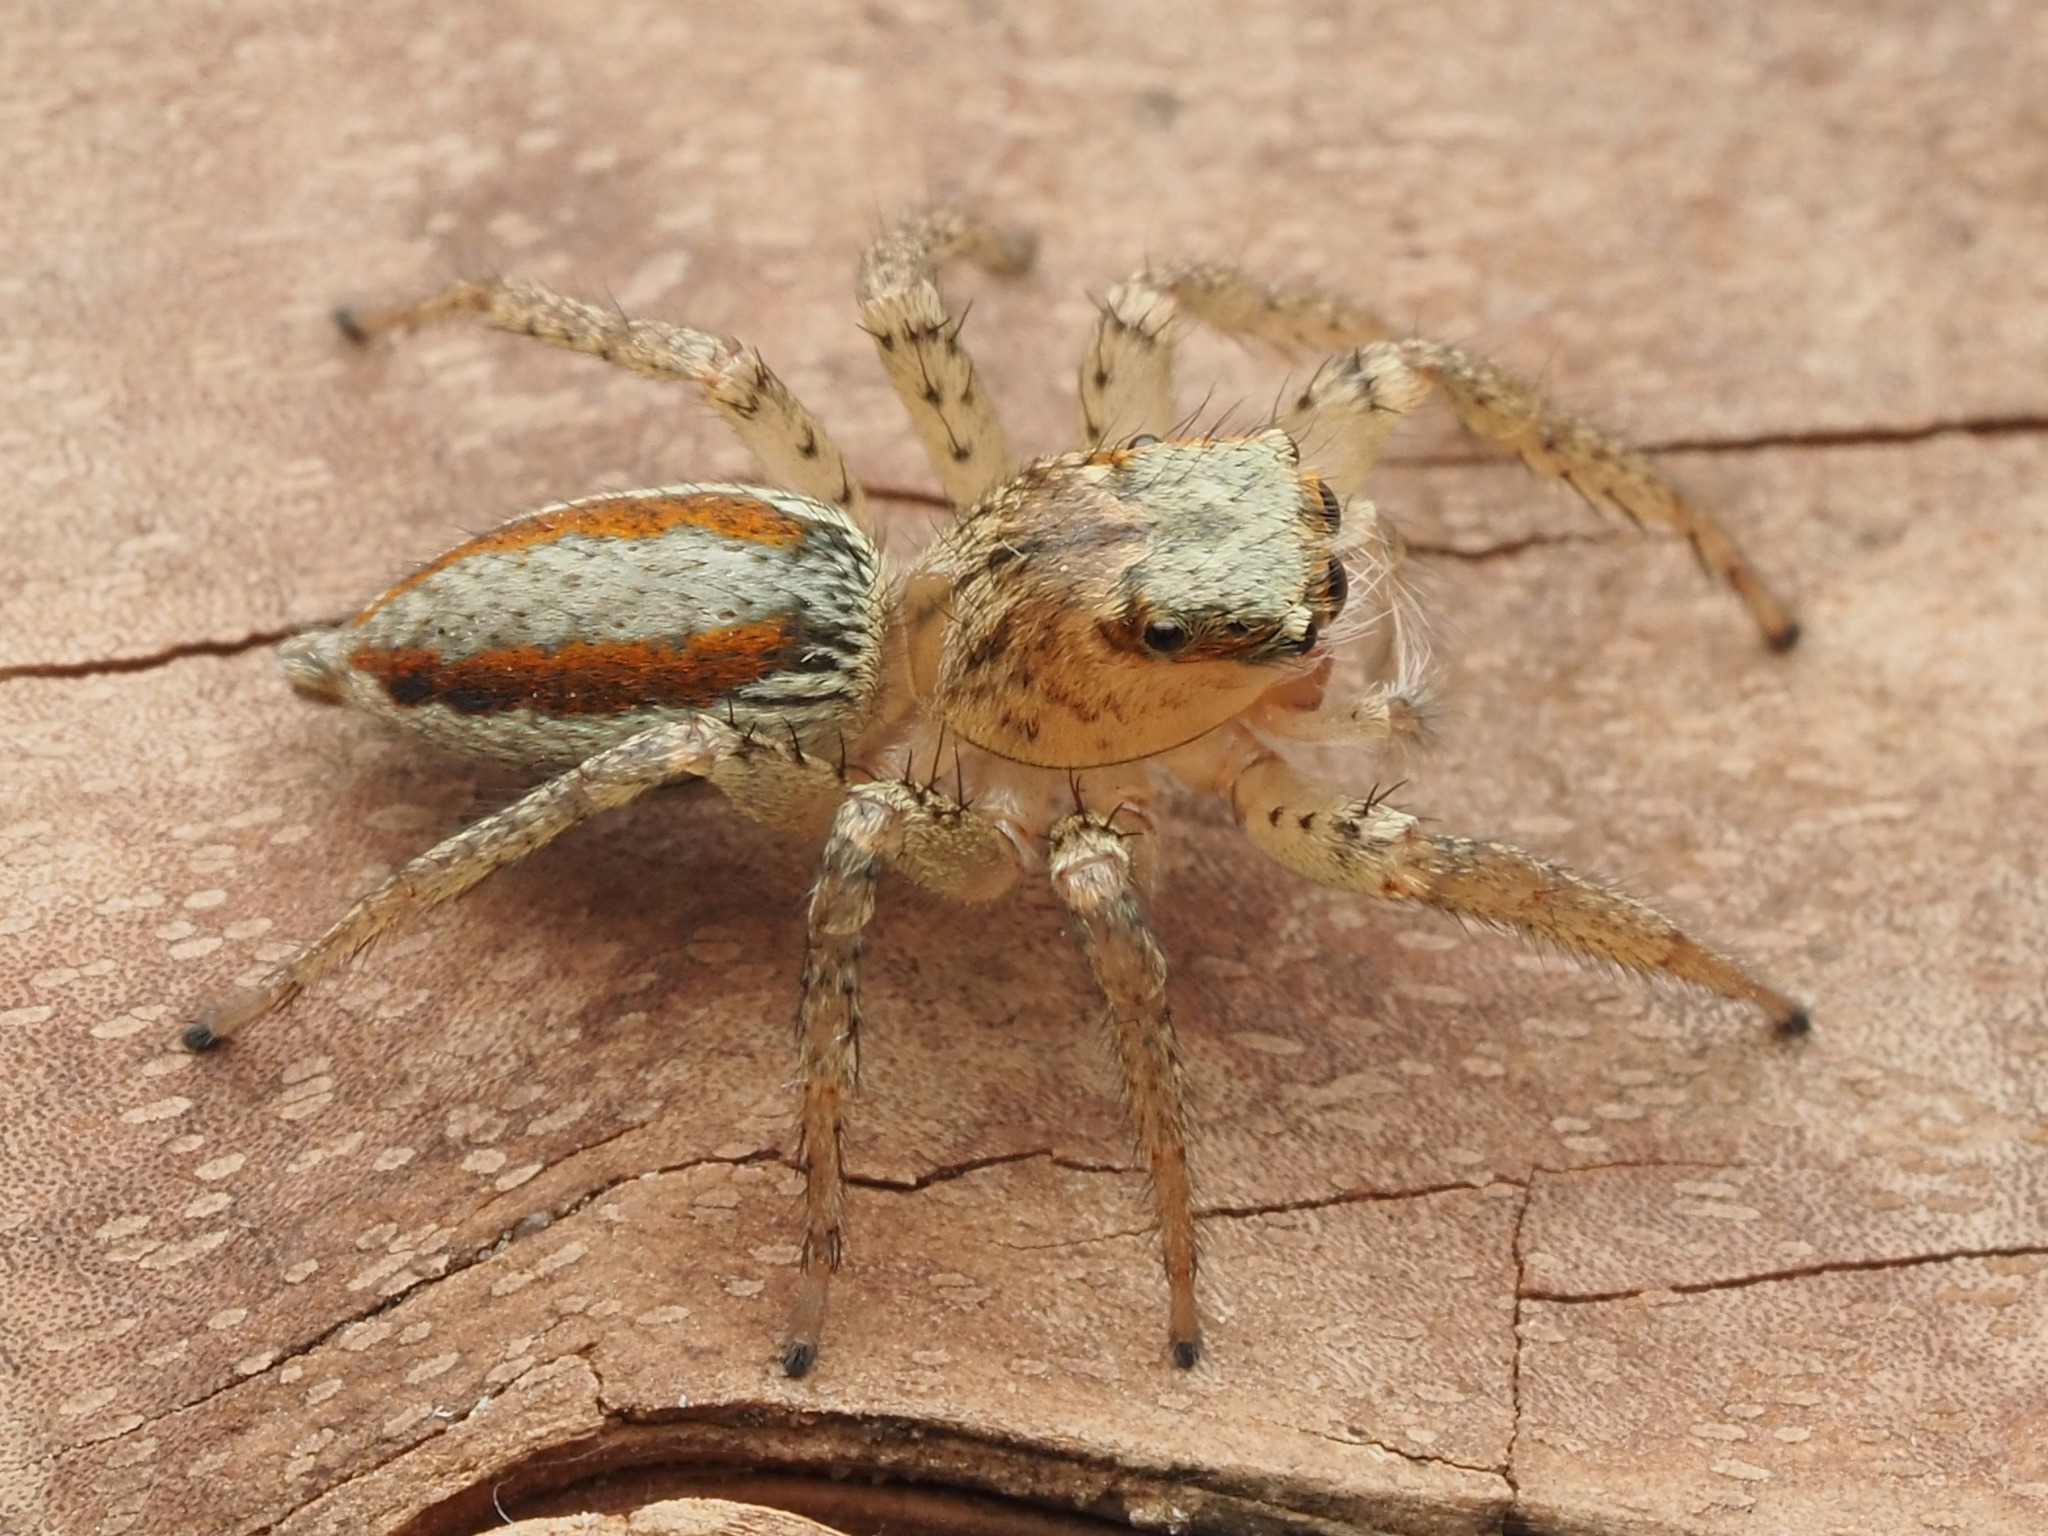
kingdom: Animalia
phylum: Arthropoda
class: Arachnida
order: Araneae
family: Salticidae
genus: Maevia
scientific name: Maevia inclemens
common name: Dimorphic jumper
